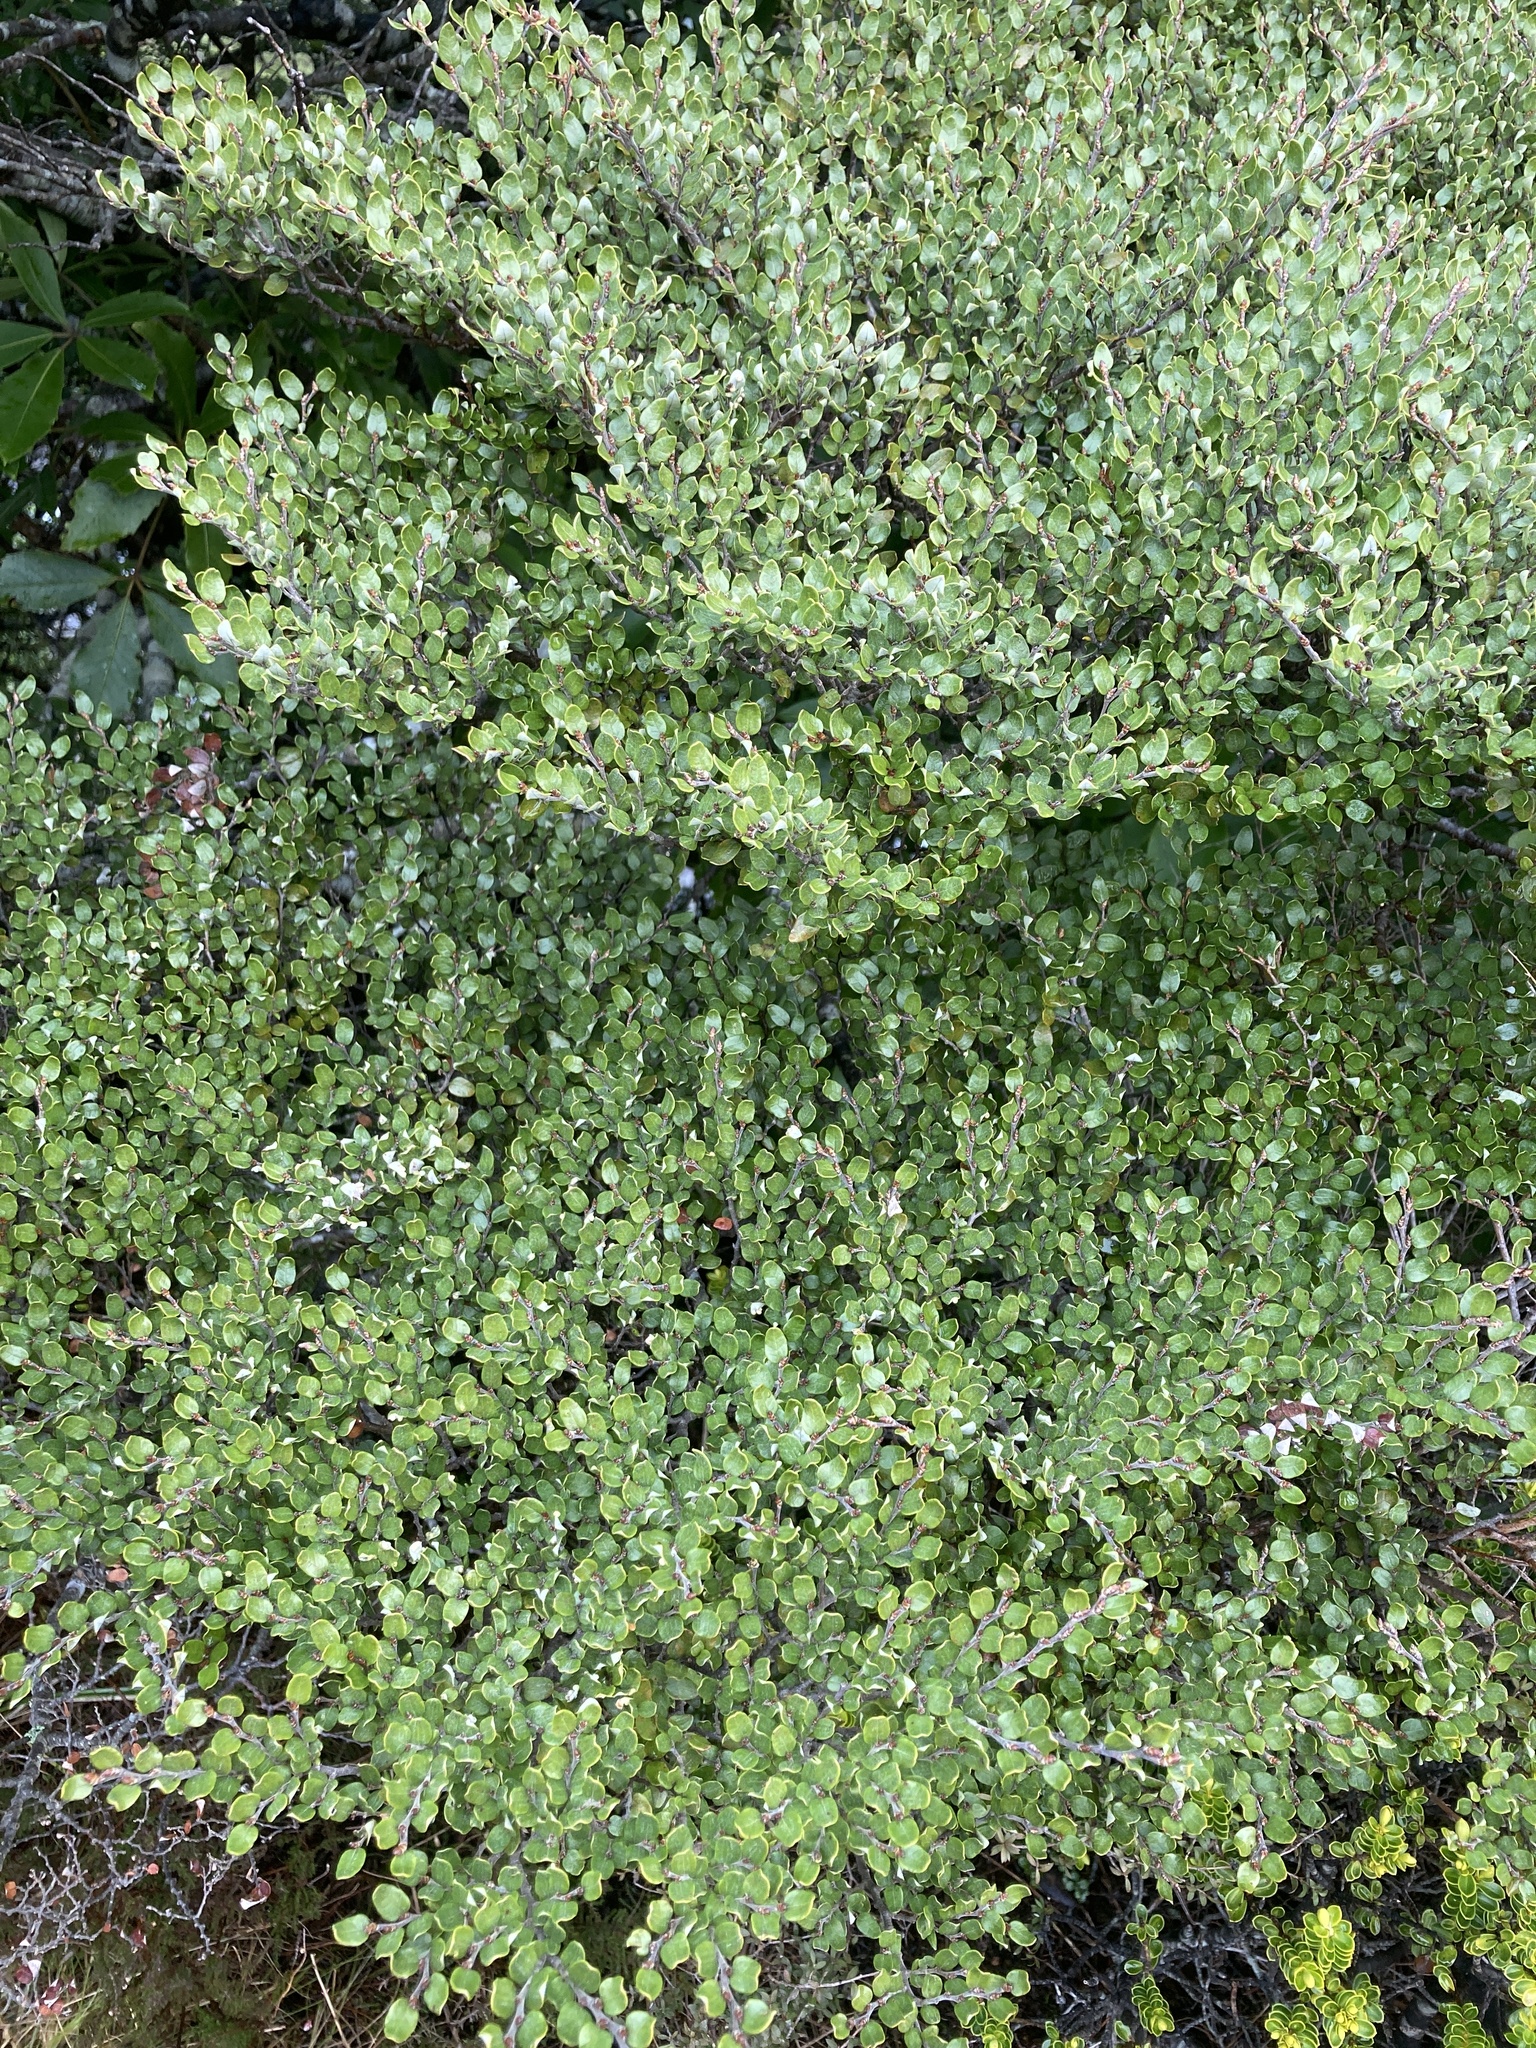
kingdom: Plantae
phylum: Tracheophyta
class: Magnoliopsida
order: Fagales
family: Nothofagaceae
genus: Nothofagus
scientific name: Nothofagus cliffortioides
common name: Mountain beech
